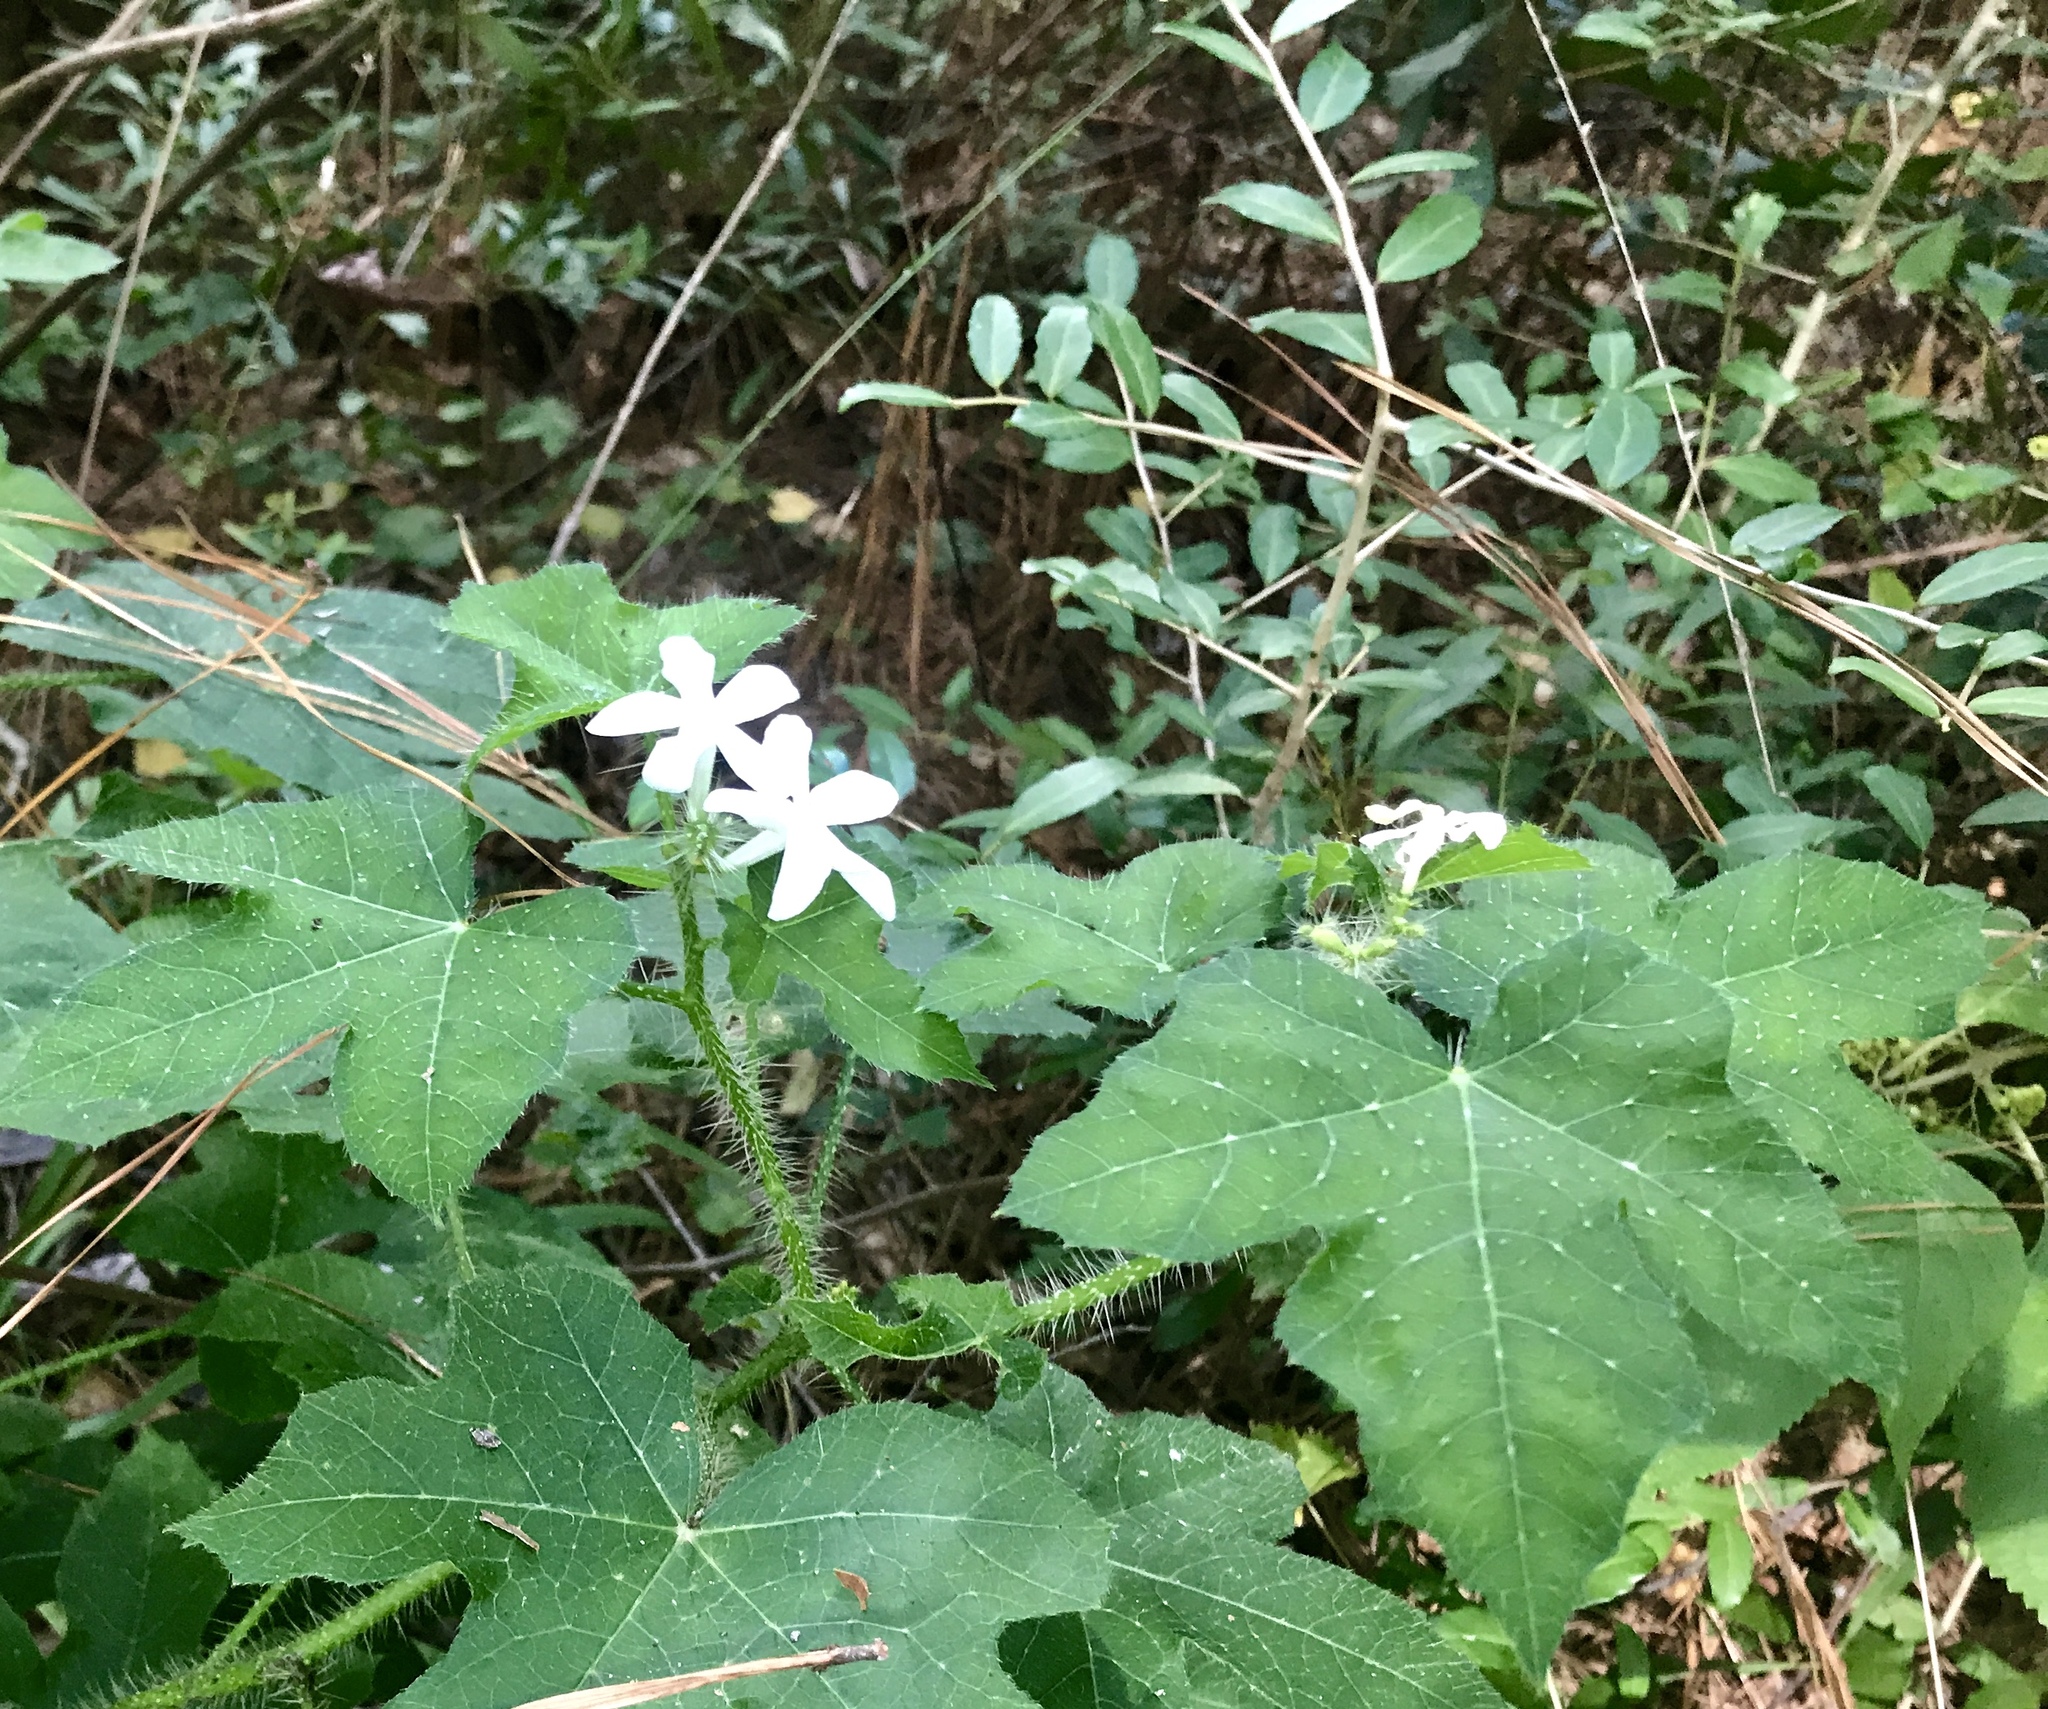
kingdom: Plantae
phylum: Tracheophyta
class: Magnoliopsida
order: Malpighiales
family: Euphorbiaceae
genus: Cnidoscolus
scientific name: Cnidoscolus texanus
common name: Texas bull-nettle
